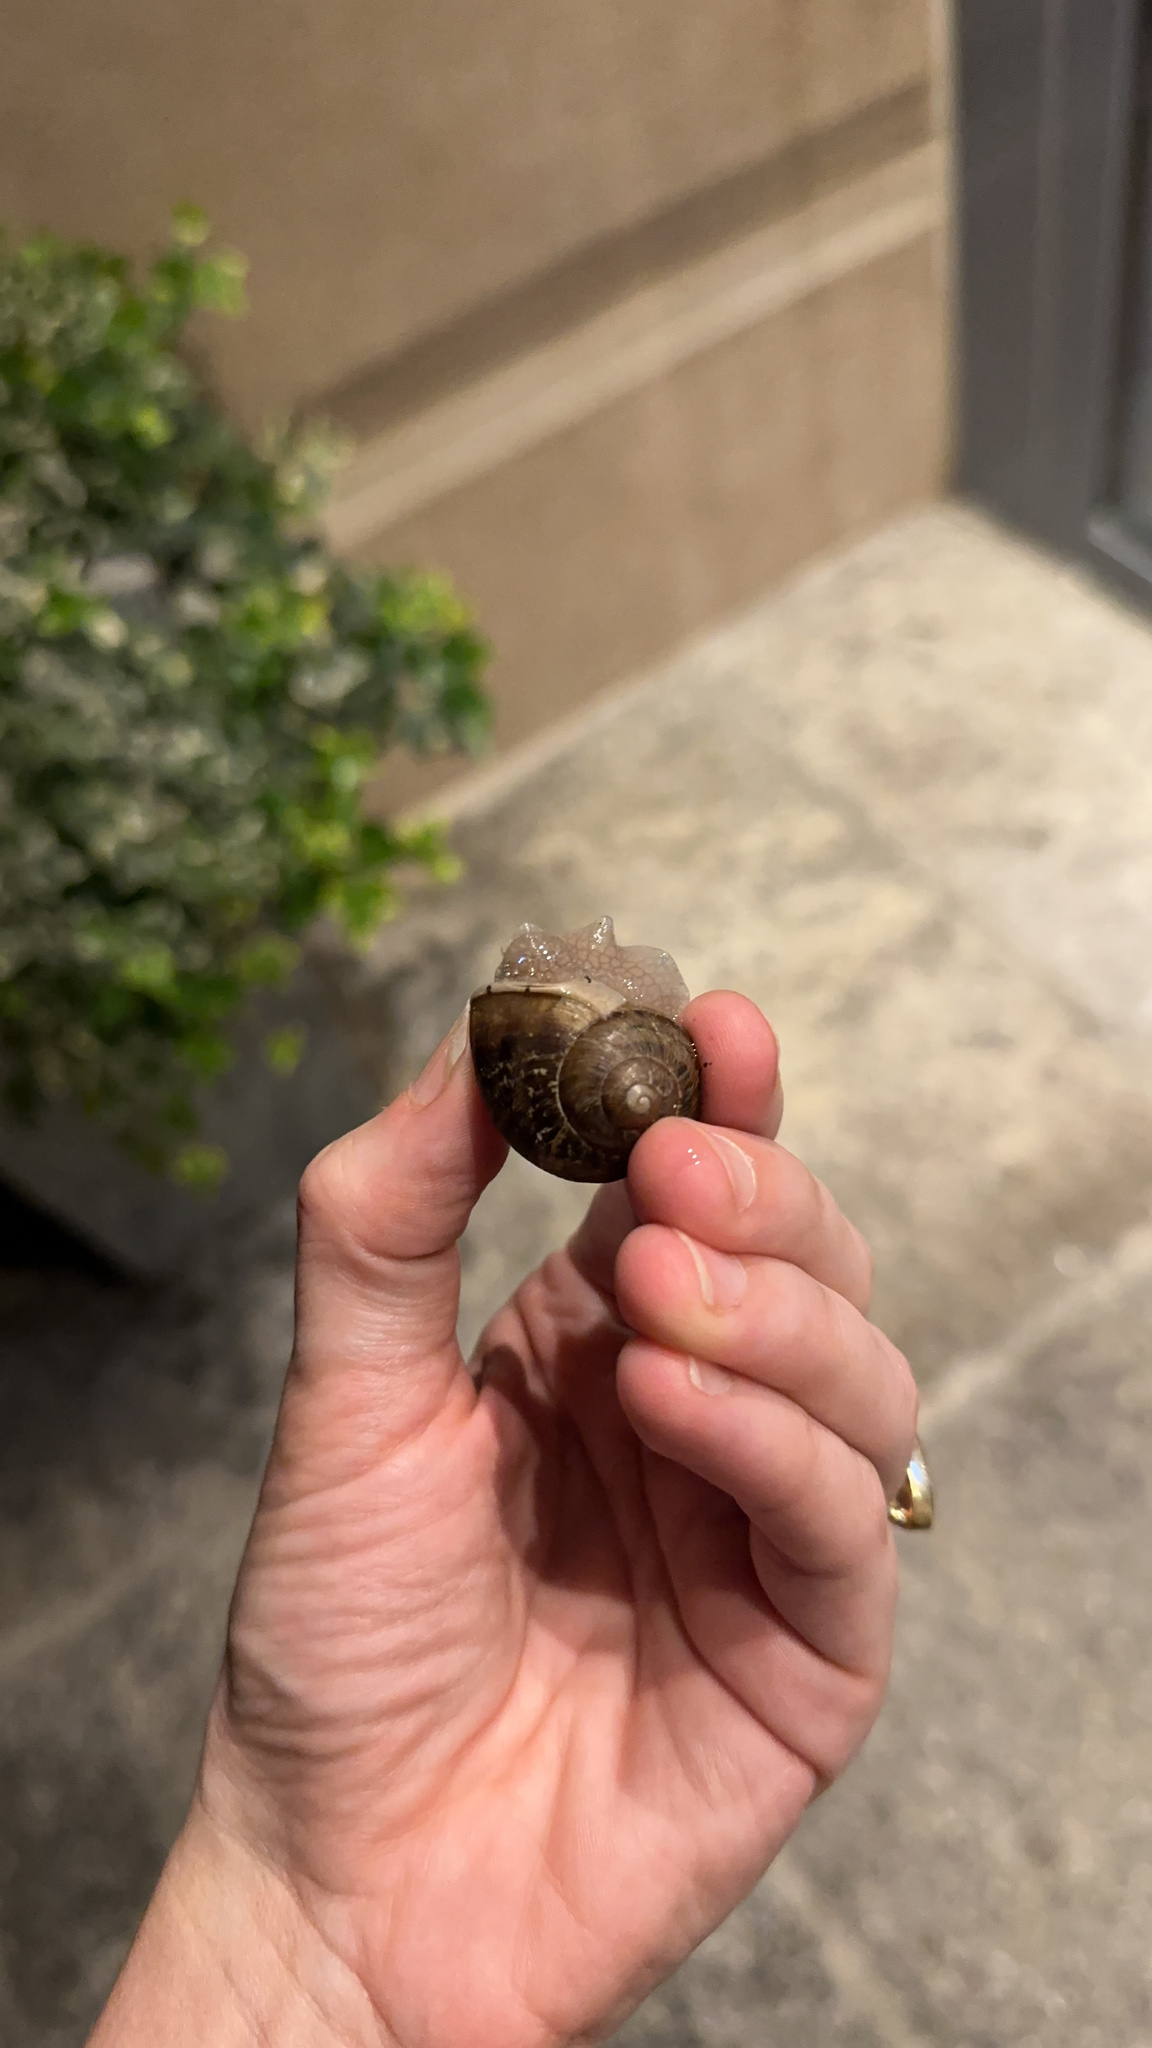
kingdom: Animalia
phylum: Mollusca
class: Gastropoda
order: Stylommatophora
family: Helicidae
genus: Cornu
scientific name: Cornu aspersum
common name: Brown garden snail
